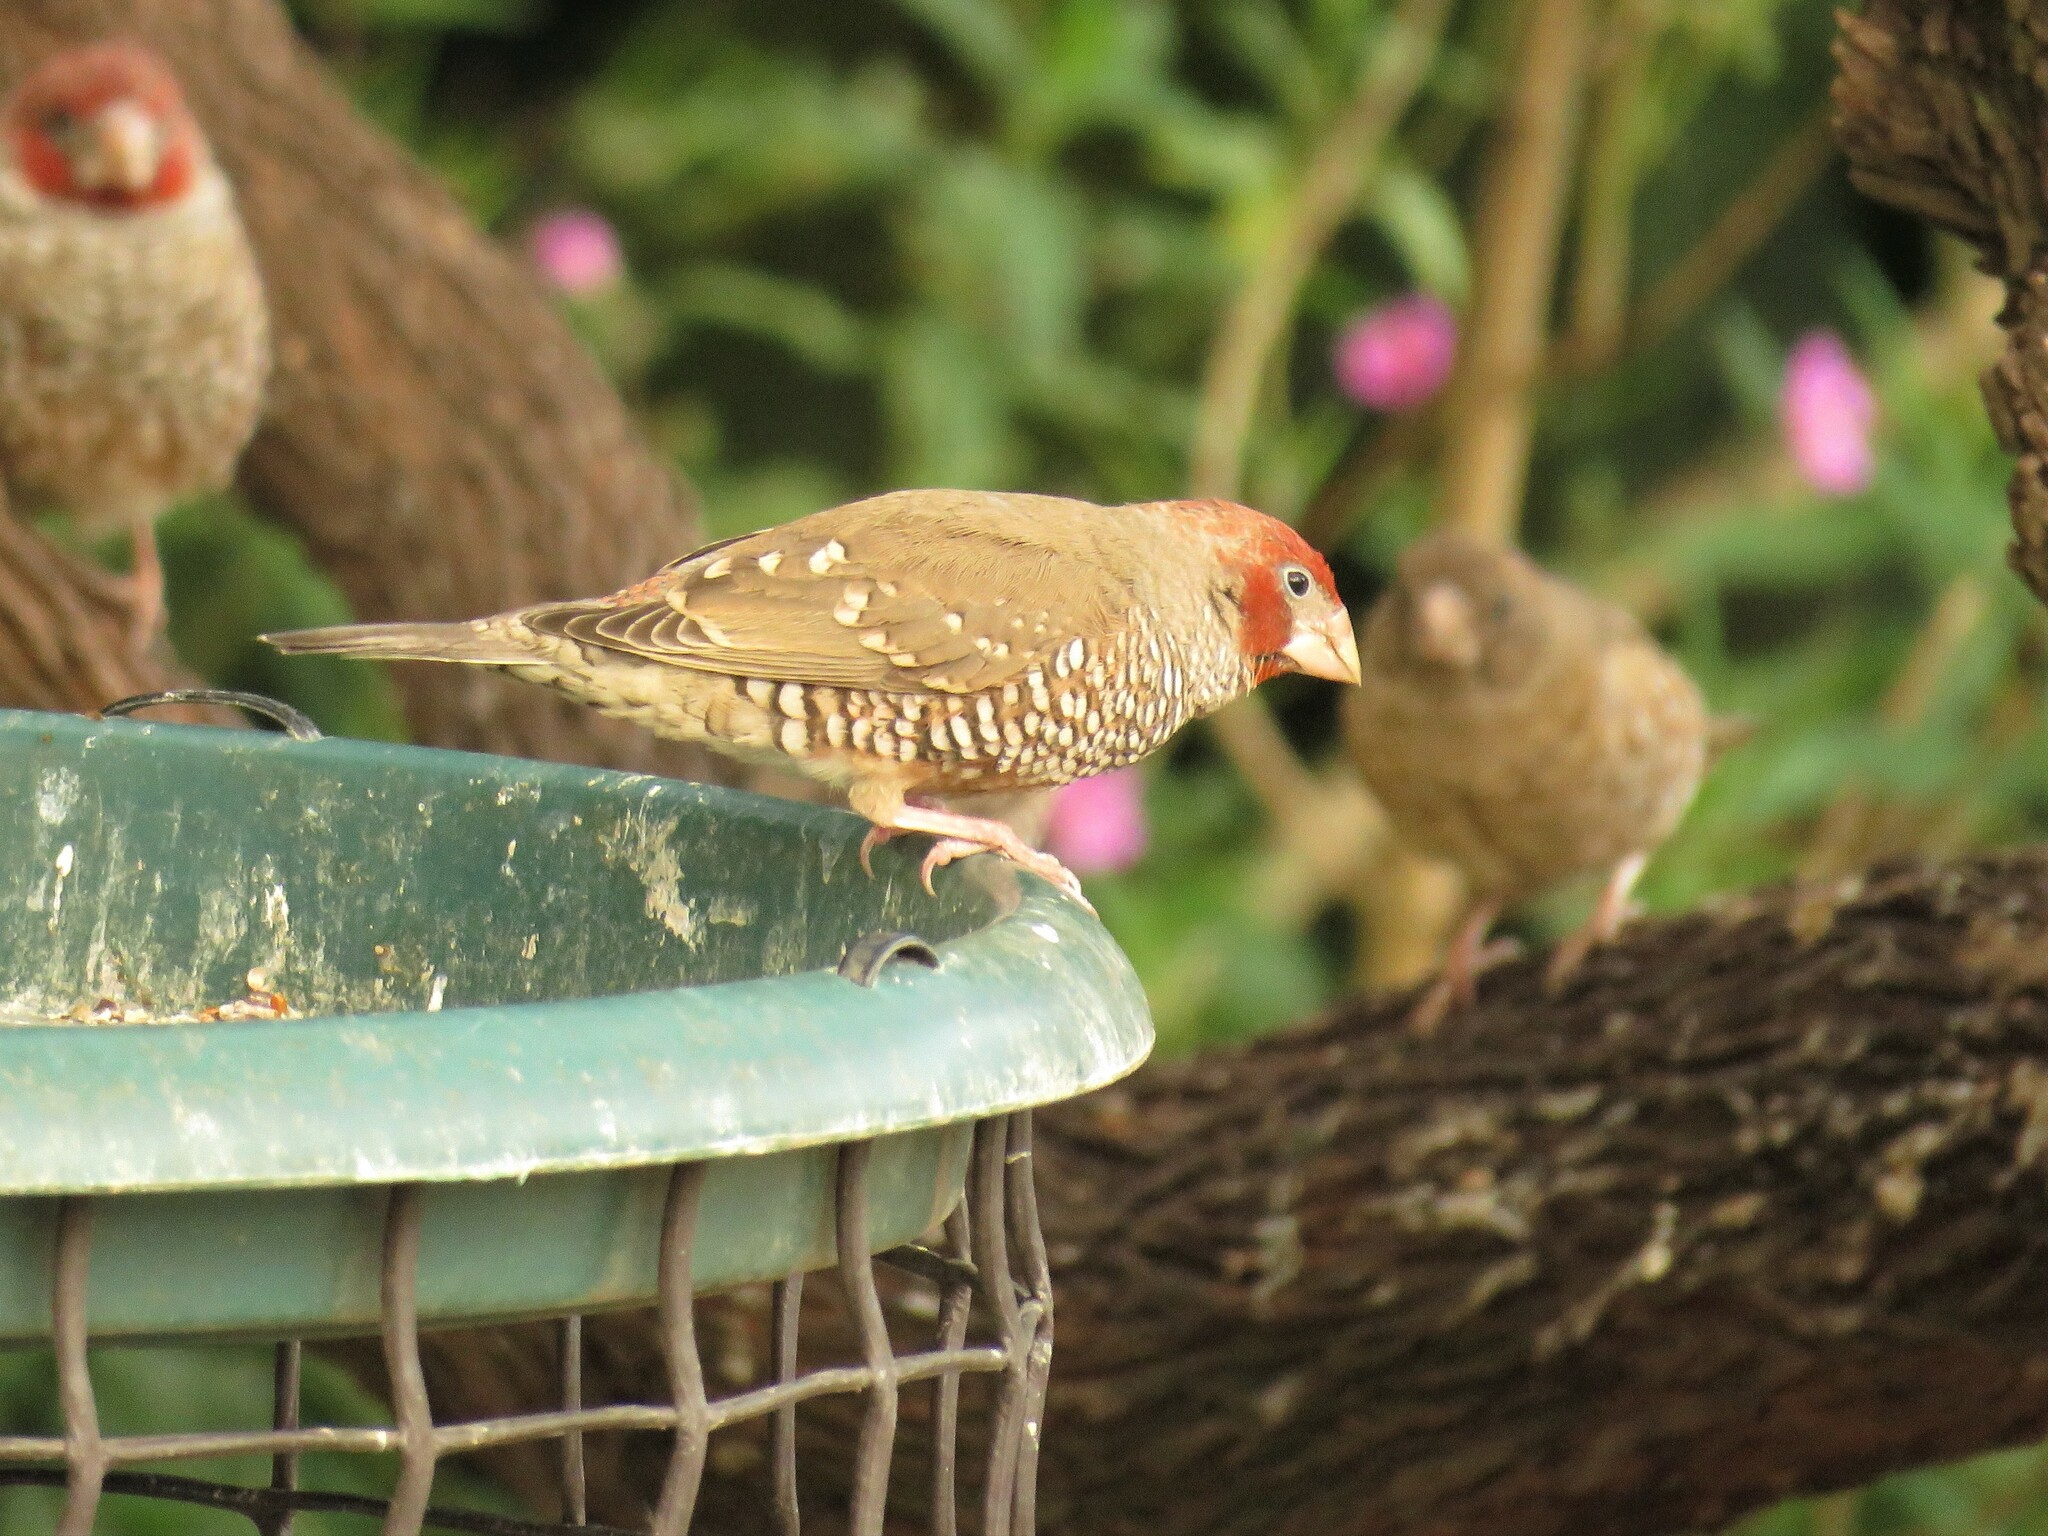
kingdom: Animalia
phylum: Chordata
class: Aves
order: Passeriformes
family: Estrildidae
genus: Amadina
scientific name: Amadina erythrocephala
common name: Red-headed finch
